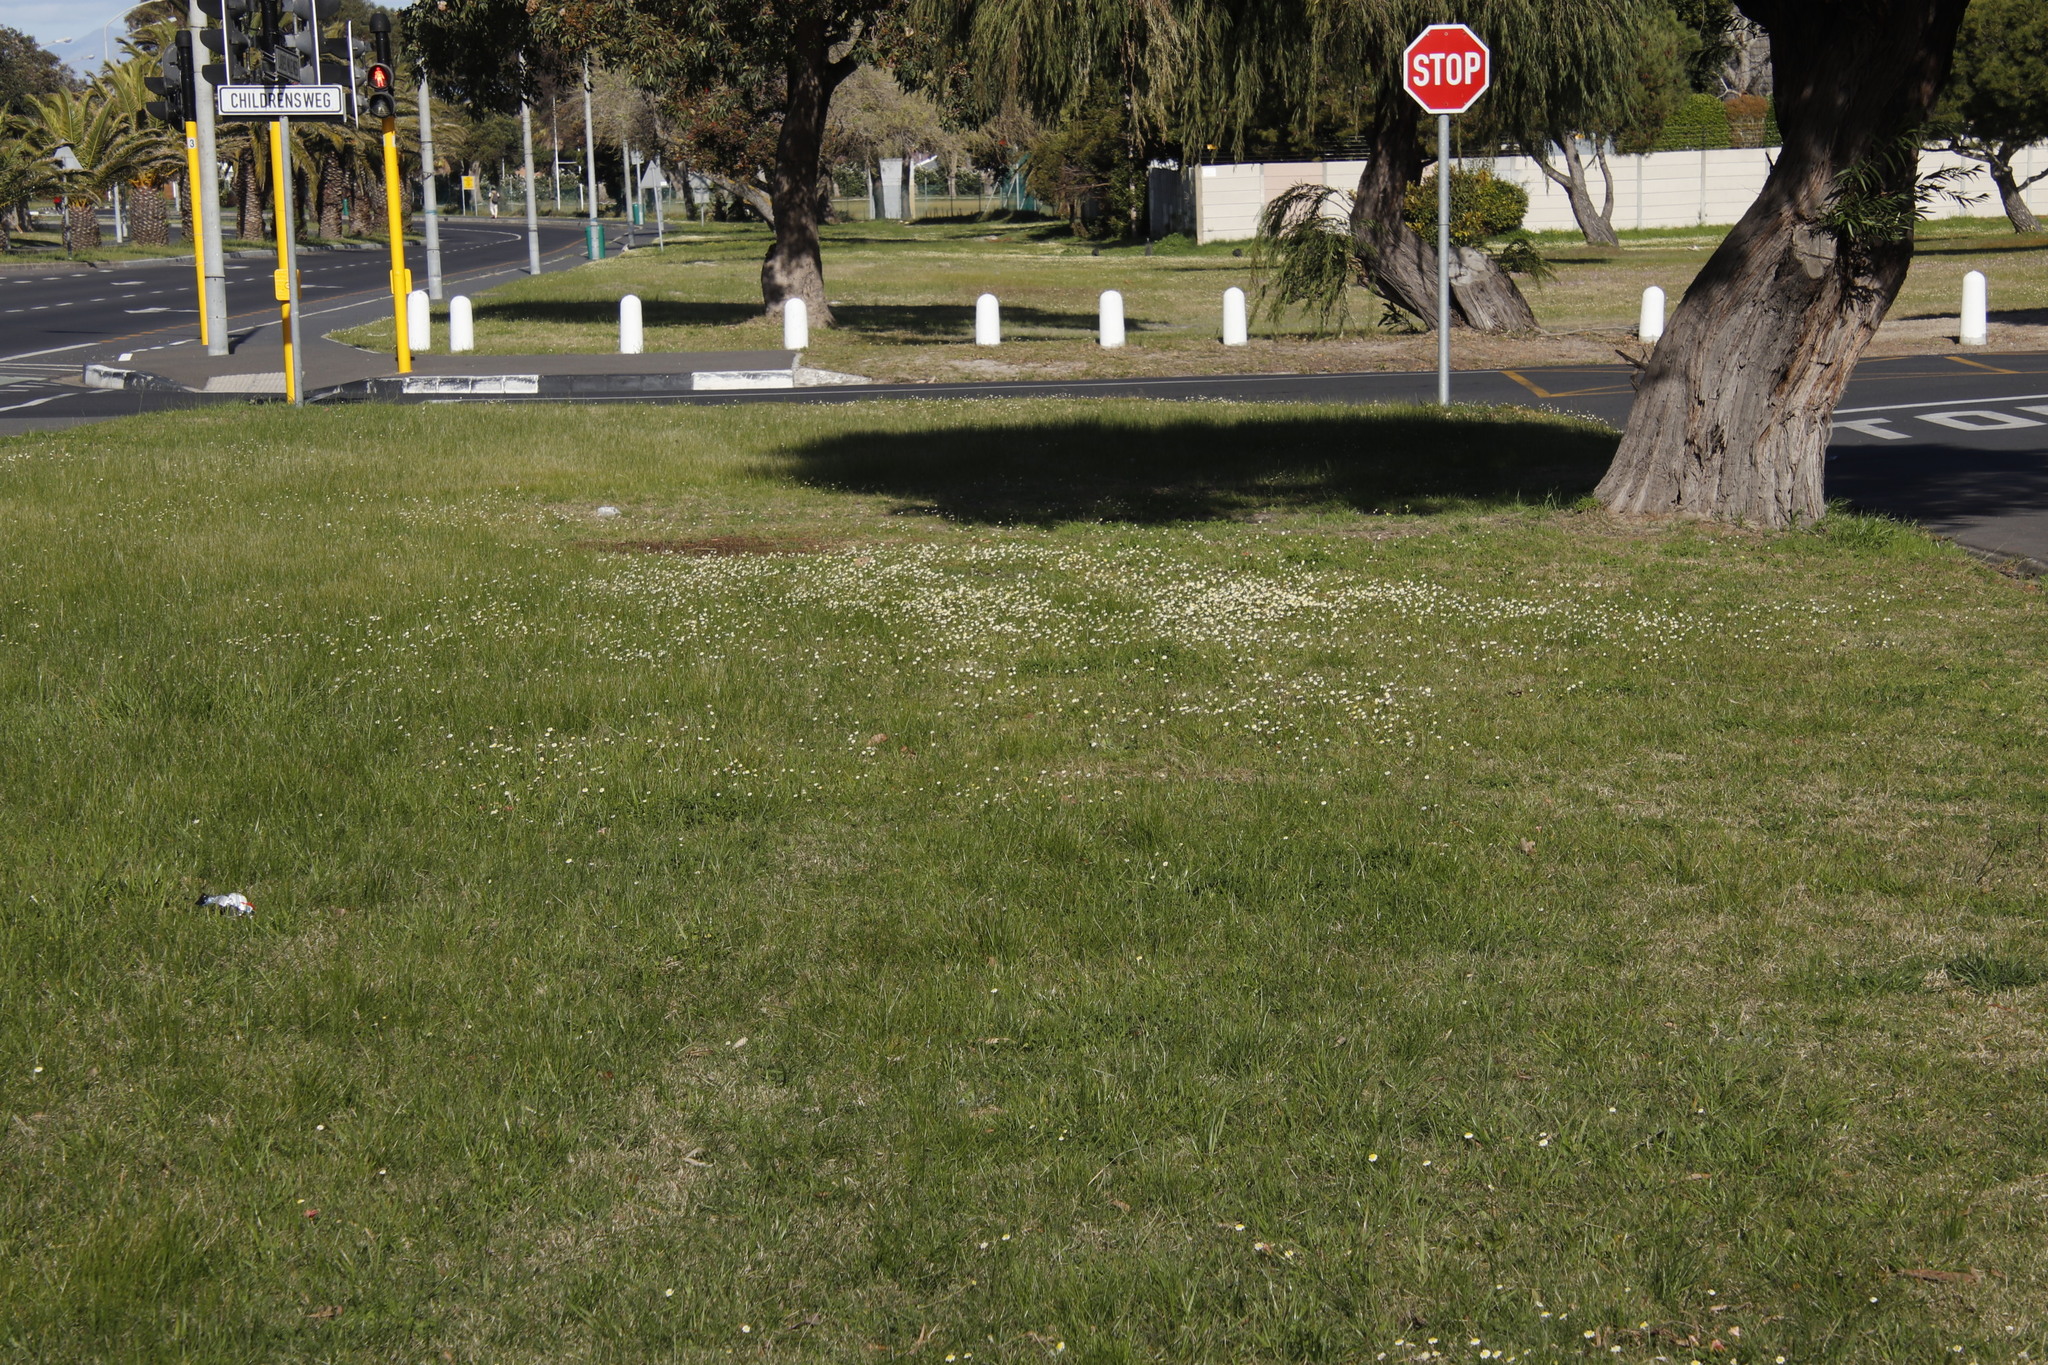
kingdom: Plantae
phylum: Tracheophyta
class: Magnoliopsida
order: Asterales
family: Asteraceae
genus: Cotula
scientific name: Cotula turbinata
